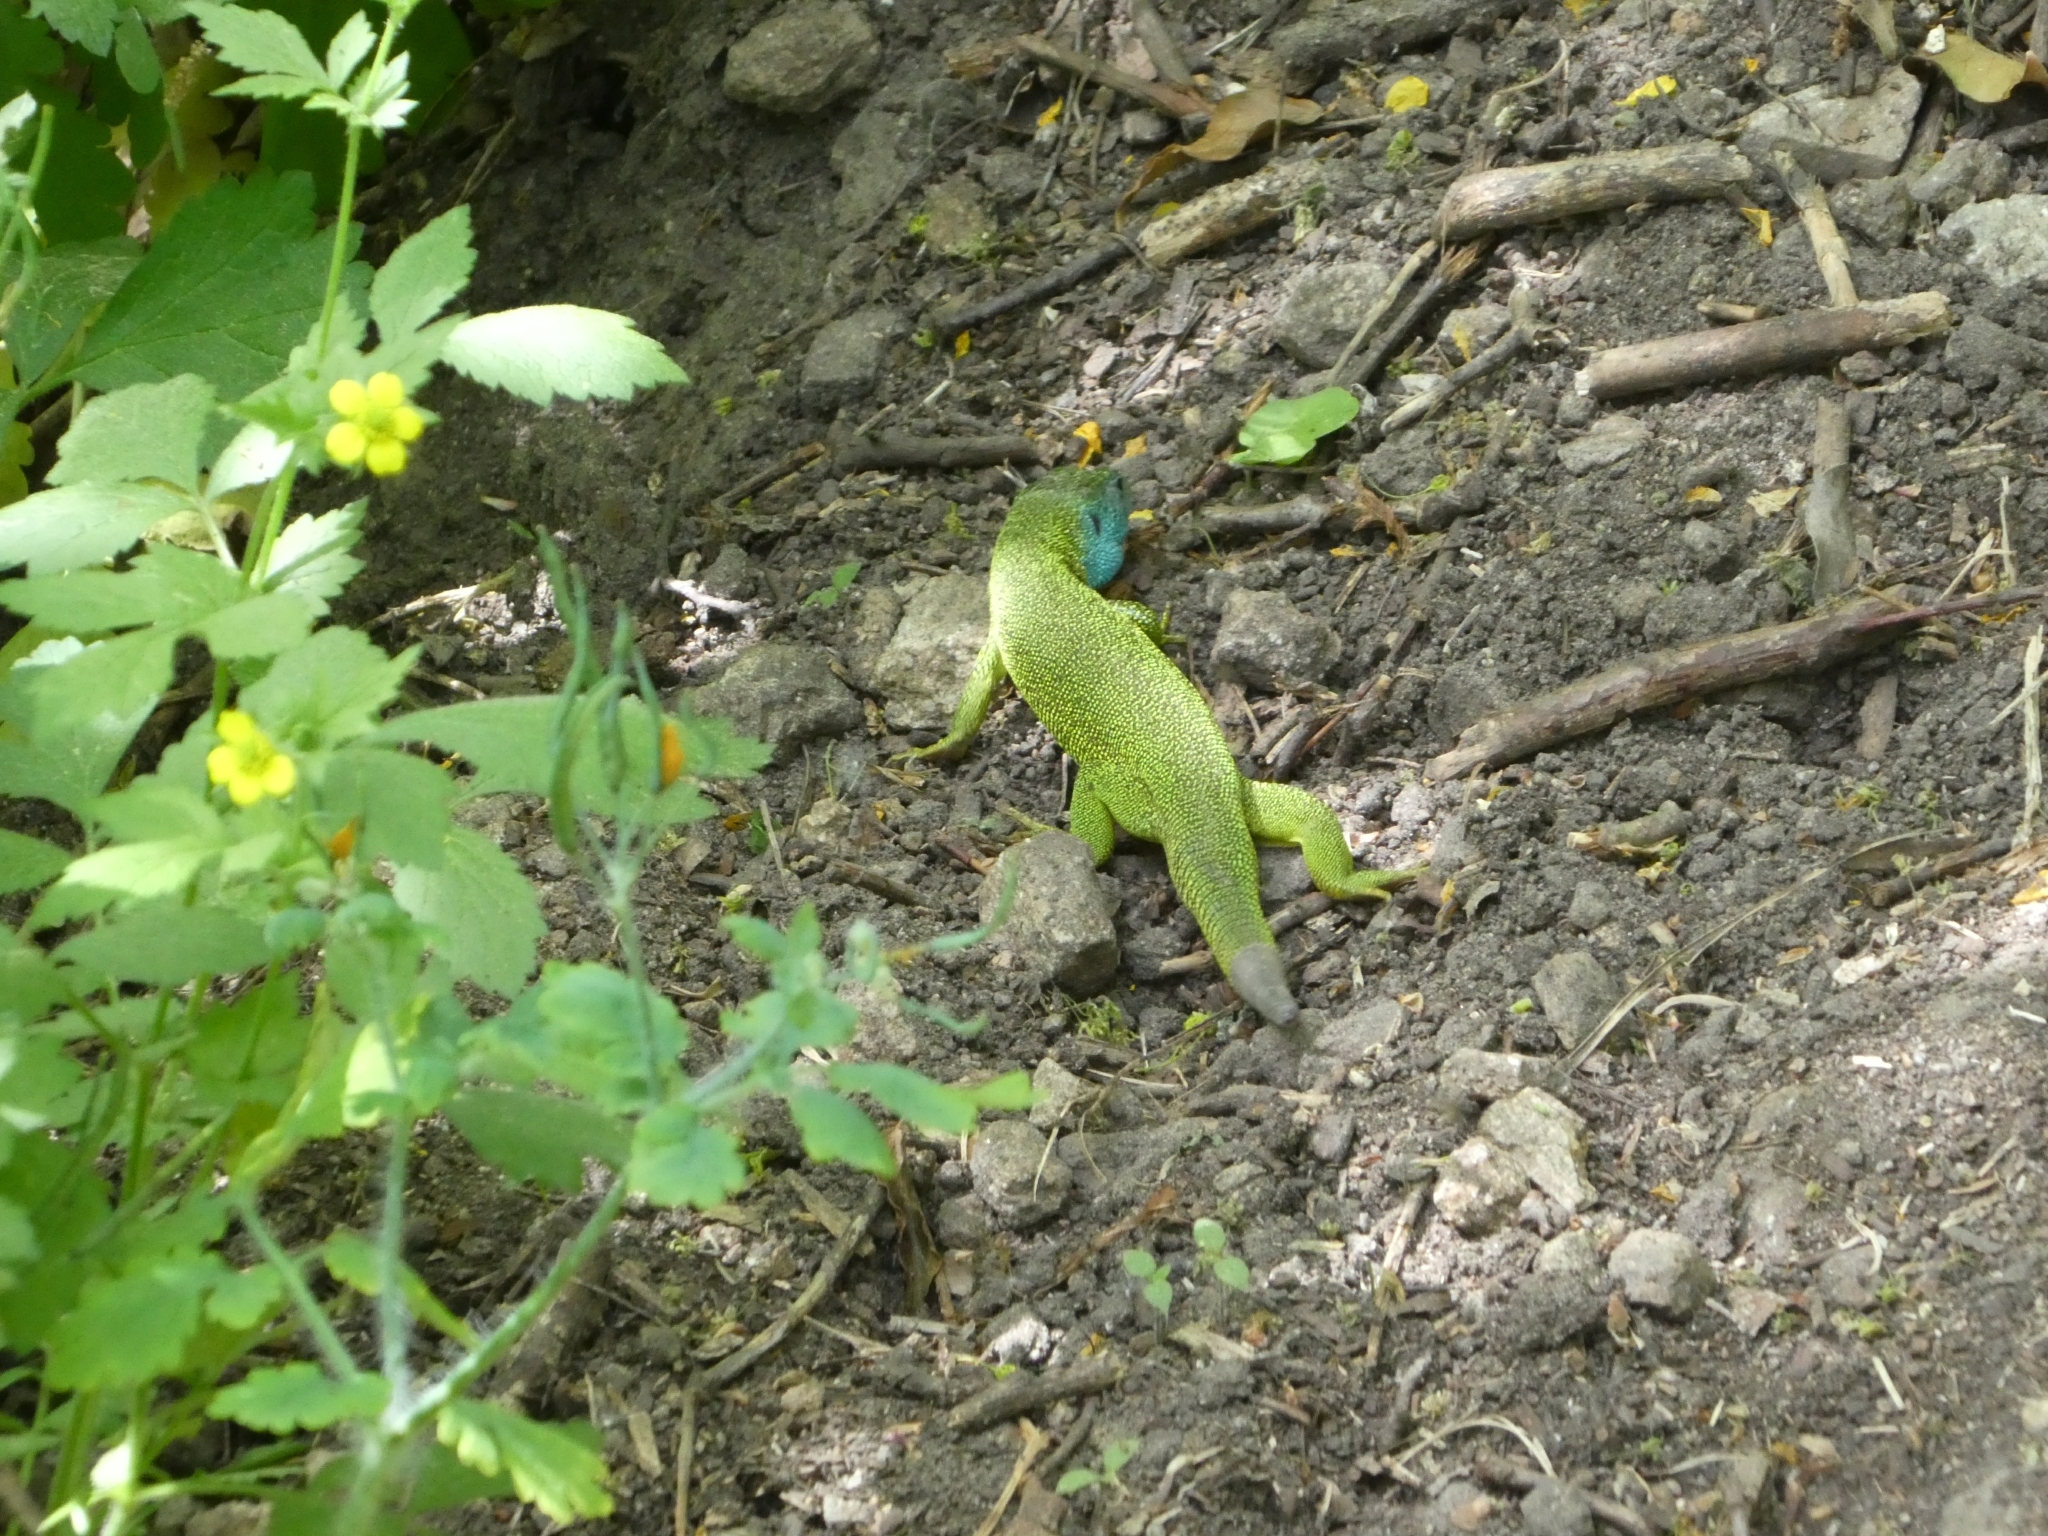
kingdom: Animalia
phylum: Chordata
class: Squamata
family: Lacertidae
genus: Lacerta
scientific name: Lacerta viridis
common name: European green lizard
